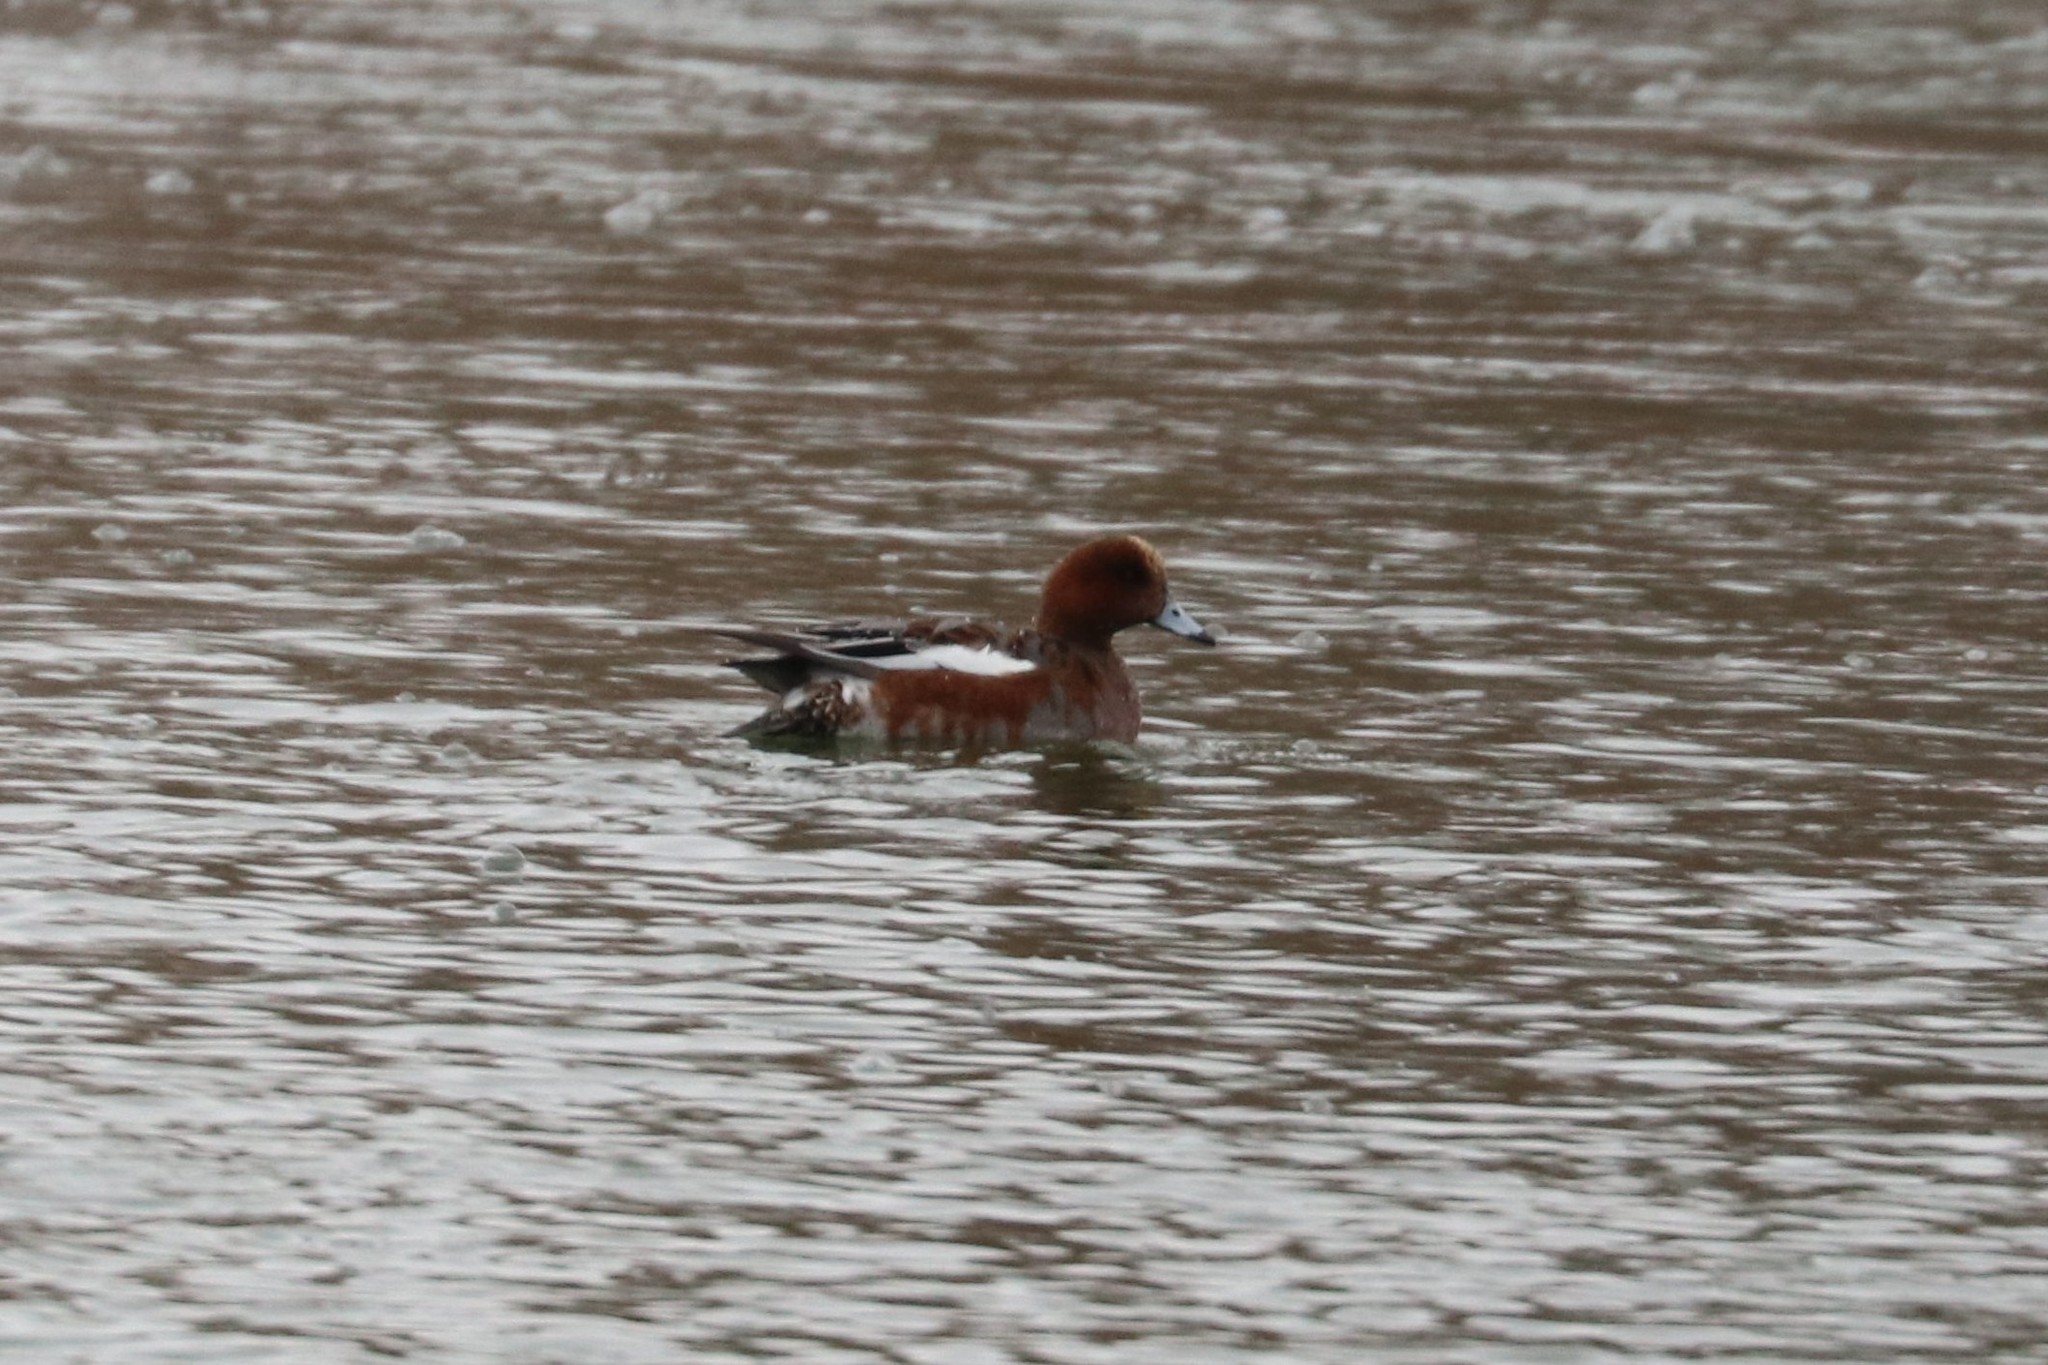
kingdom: Animalia
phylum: Chordata
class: Aves
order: Anseriformes
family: Anatidae
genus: Mareca
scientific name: Mareca penelope
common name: Eurasian wigeon
